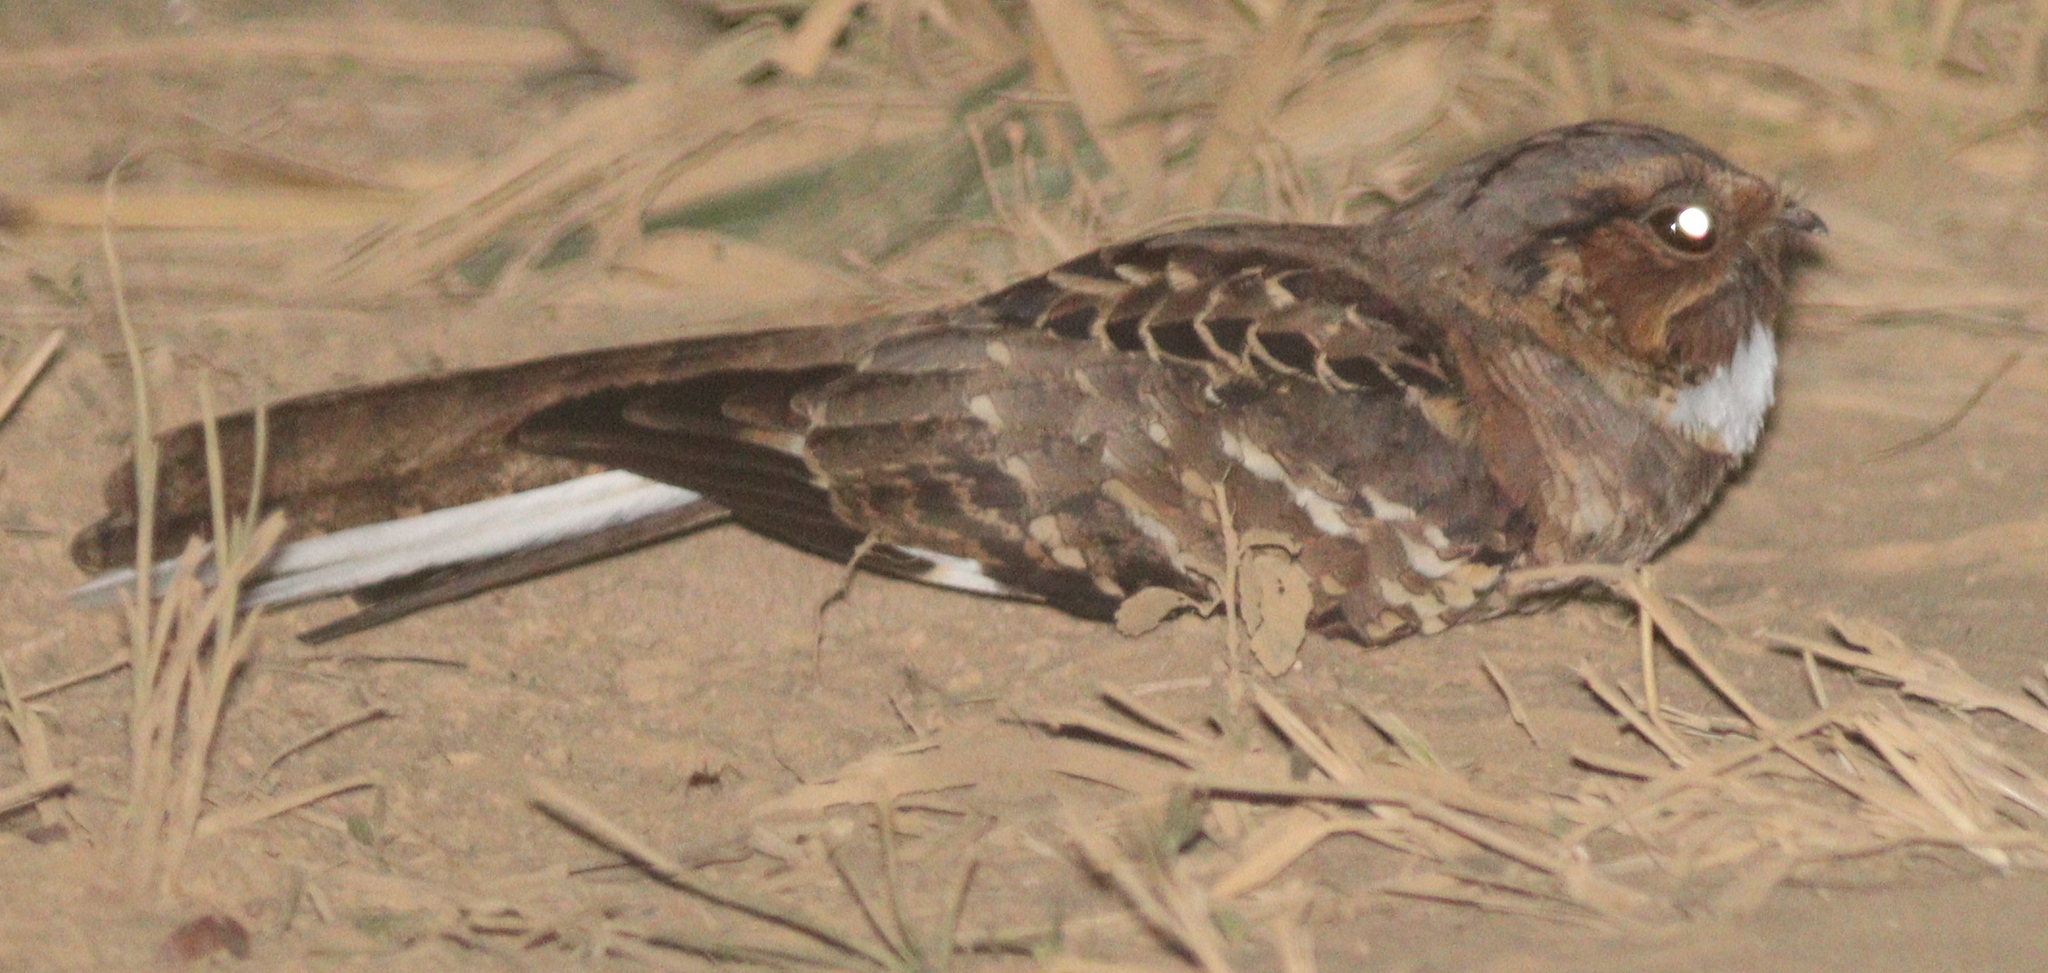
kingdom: Animalia
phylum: Chordata
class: Aves
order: Caprimulgiformes
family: Caprimulgidae
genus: Nyctidromus
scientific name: Nyctidromus albicollis
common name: Pauraque
